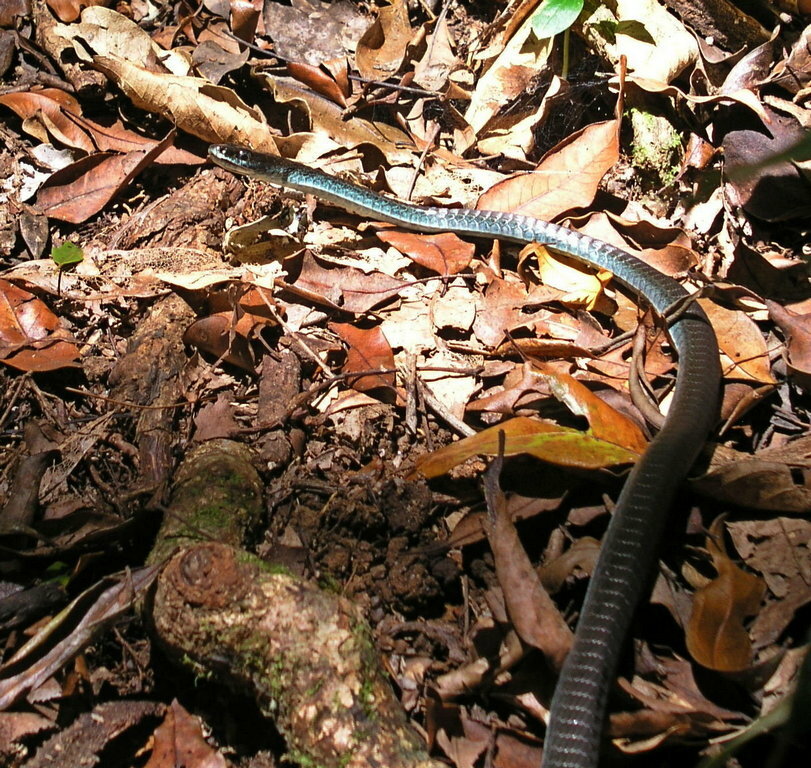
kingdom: Animalia
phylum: Chordata
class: Squamata
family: Colubridae
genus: Dendrelaphis
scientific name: Dendrelaphis punctulatus
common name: Common tree snake
